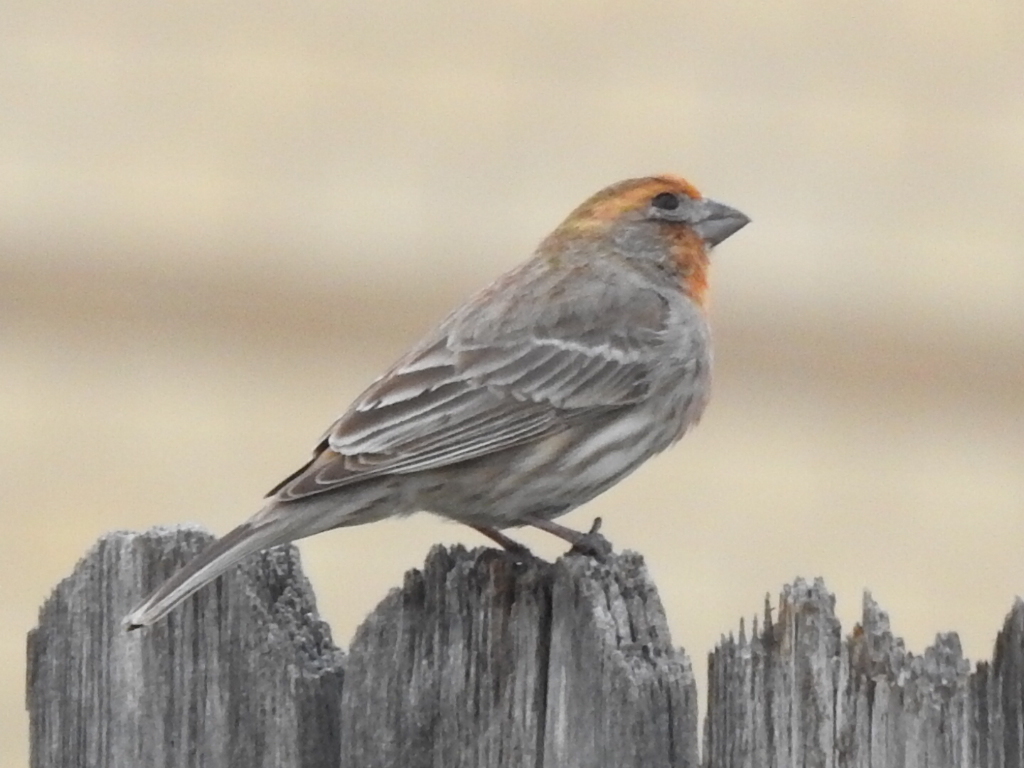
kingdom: Animalia
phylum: Chordata
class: Aves
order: Passeriformes
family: Fringillidae
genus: Haemorhous
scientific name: Haemorhous mexicanus
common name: House finch
